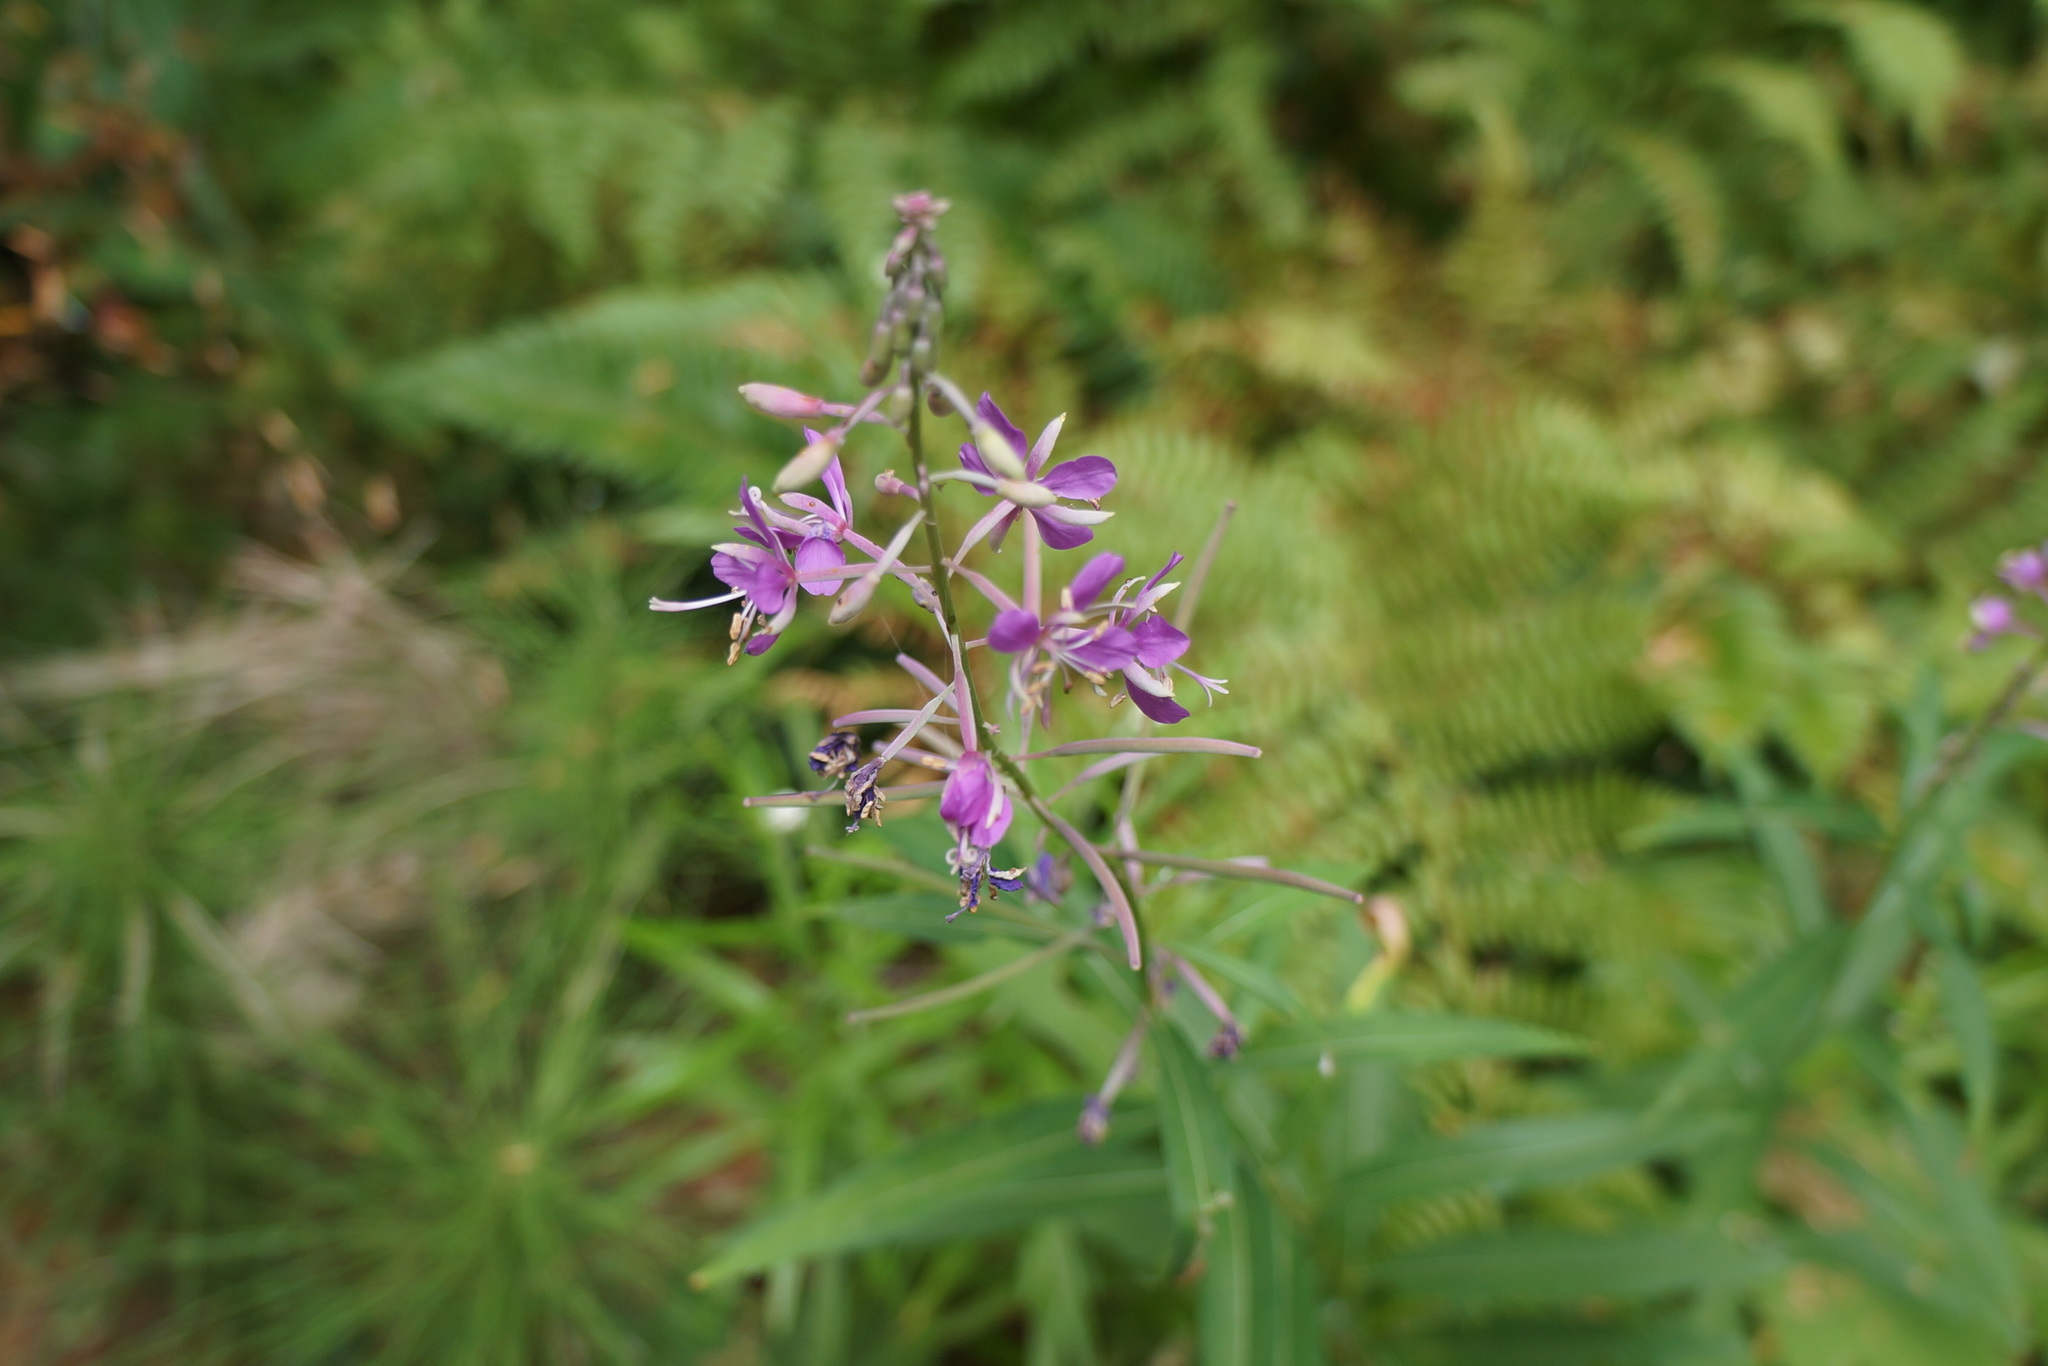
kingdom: Plantae
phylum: Tracheophyta
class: Magnoliopsida
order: Myrtales
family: Onagraceae
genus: Chamaenerion
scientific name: Chamaenerion angustifolium
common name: Fireweed
